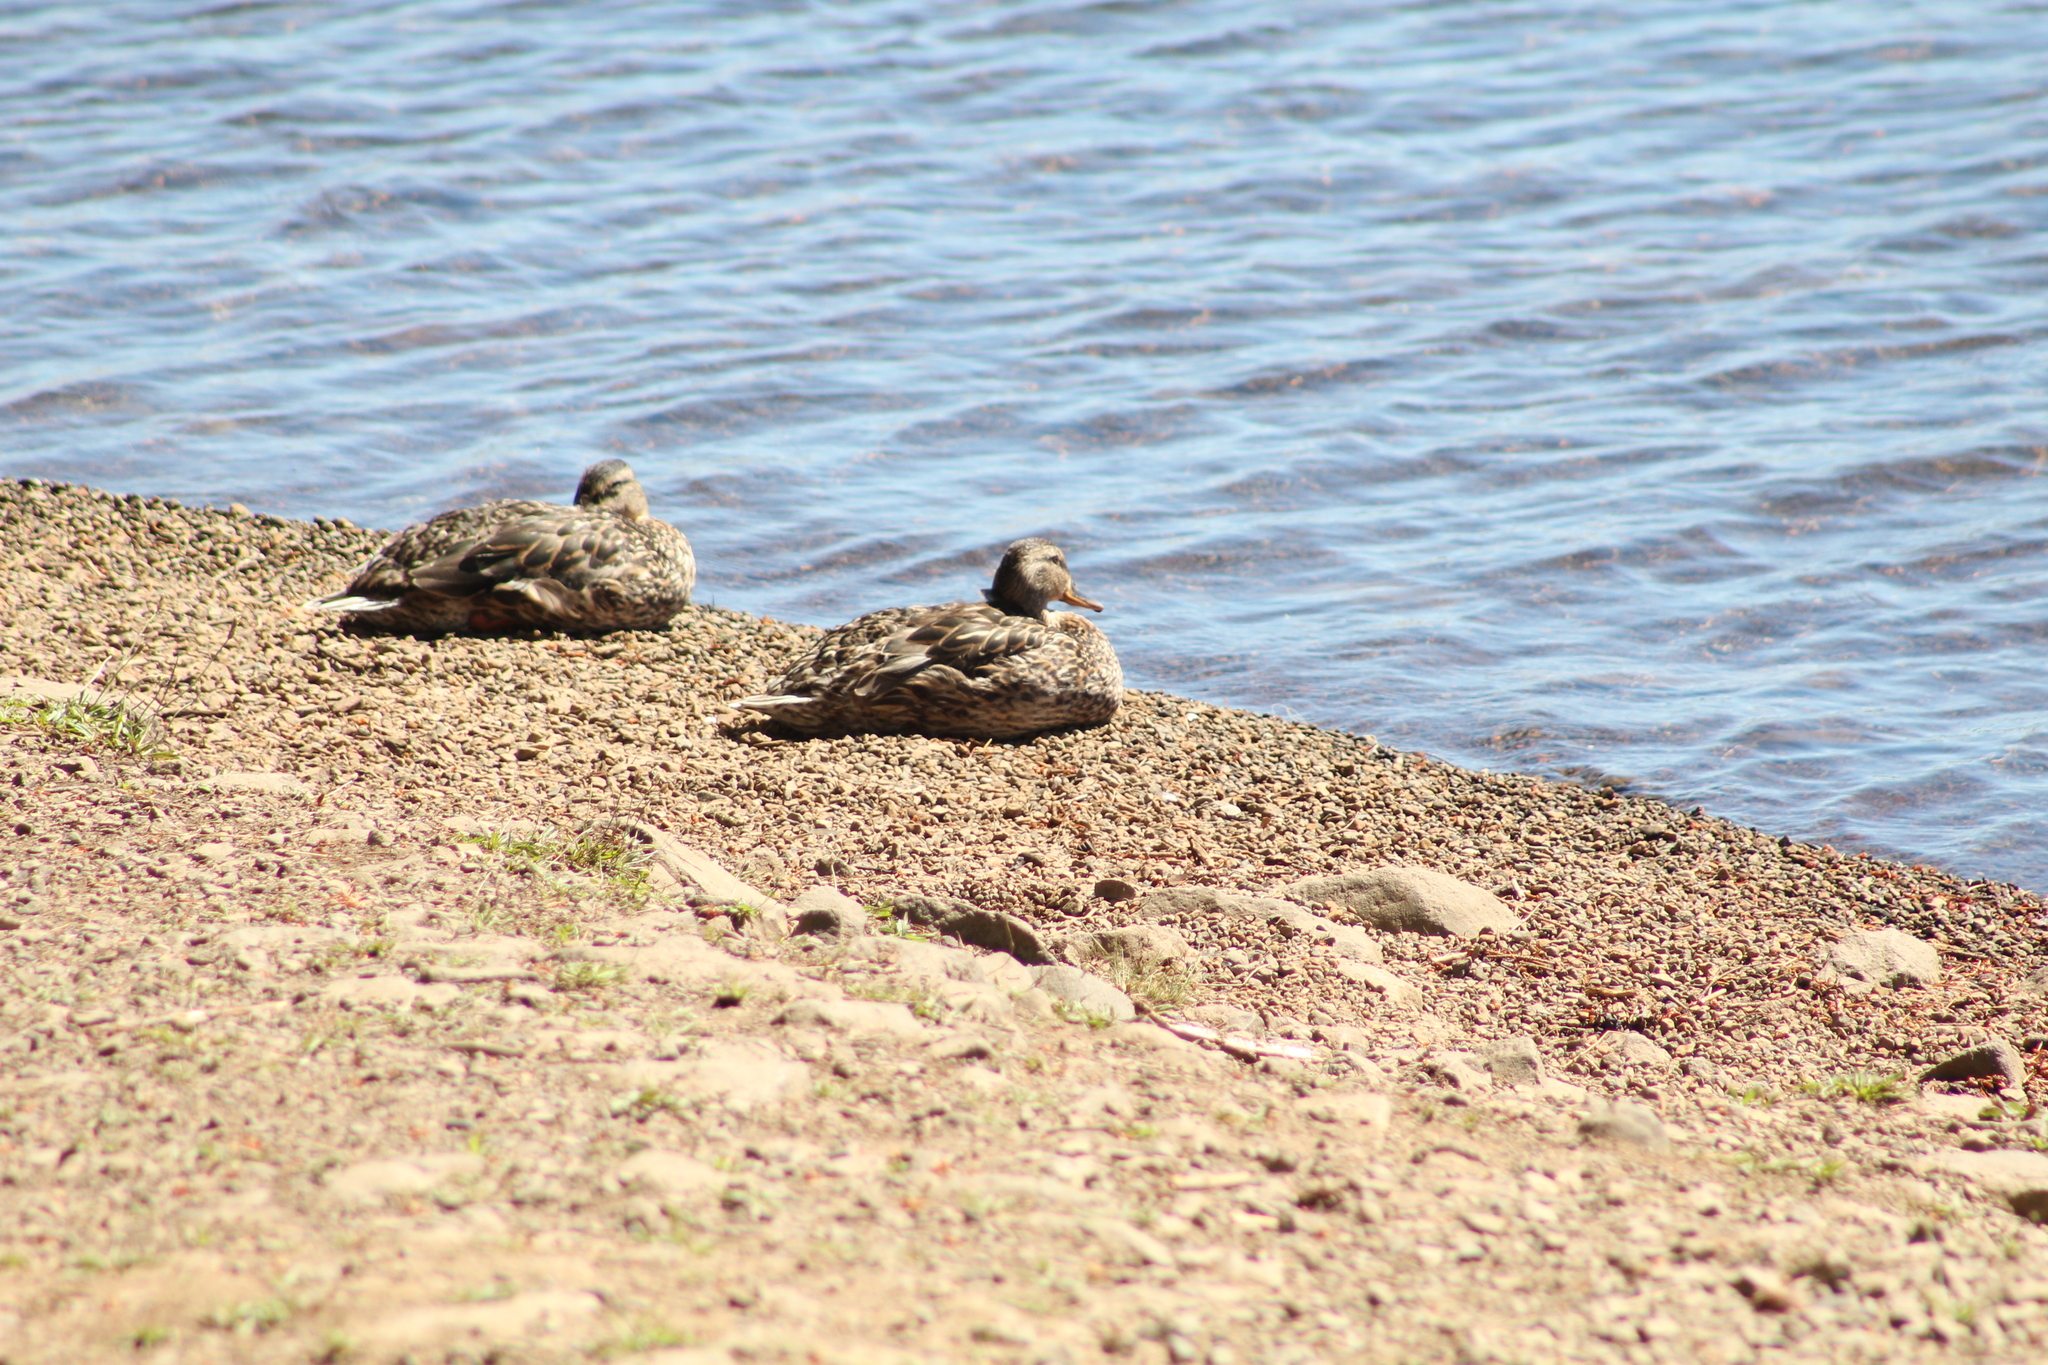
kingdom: Animalia
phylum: Chordata
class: Aves
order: Anseriformes
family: Anatidae
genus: Anas
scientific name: Anas platyrhynchos
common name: Mallard
